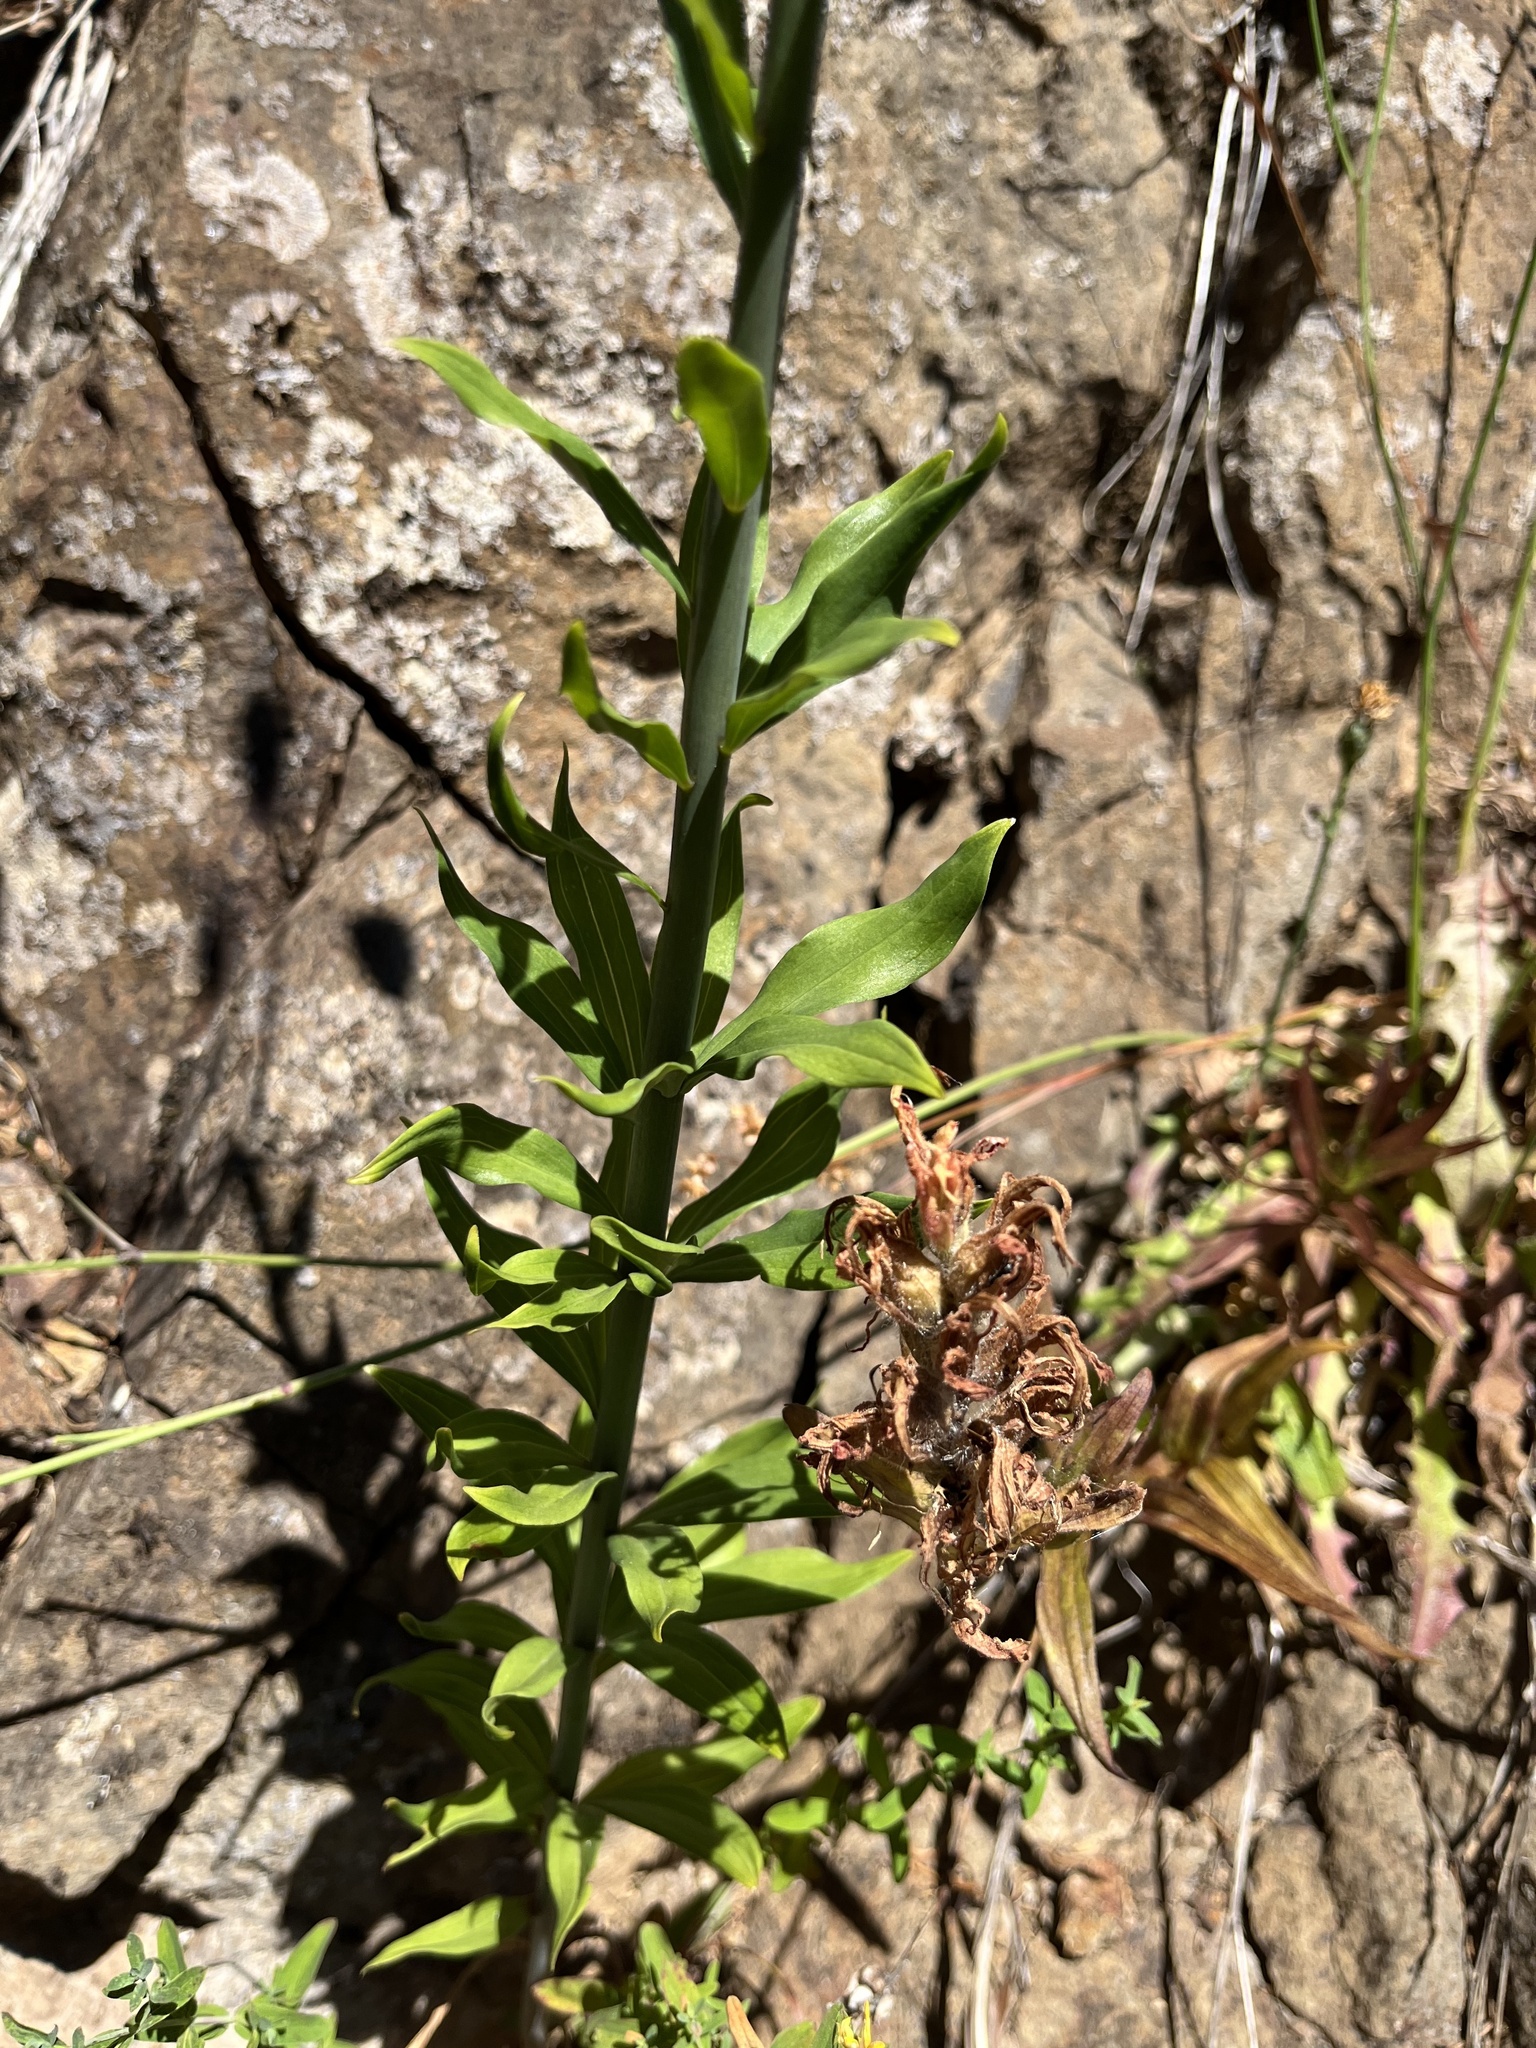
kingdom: Plantae
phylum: Tracheophyta
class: Liliopsida
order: Liliales
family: Liliaceae
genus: Lilium
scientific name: Lilium columbianum
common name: Columbia lily
